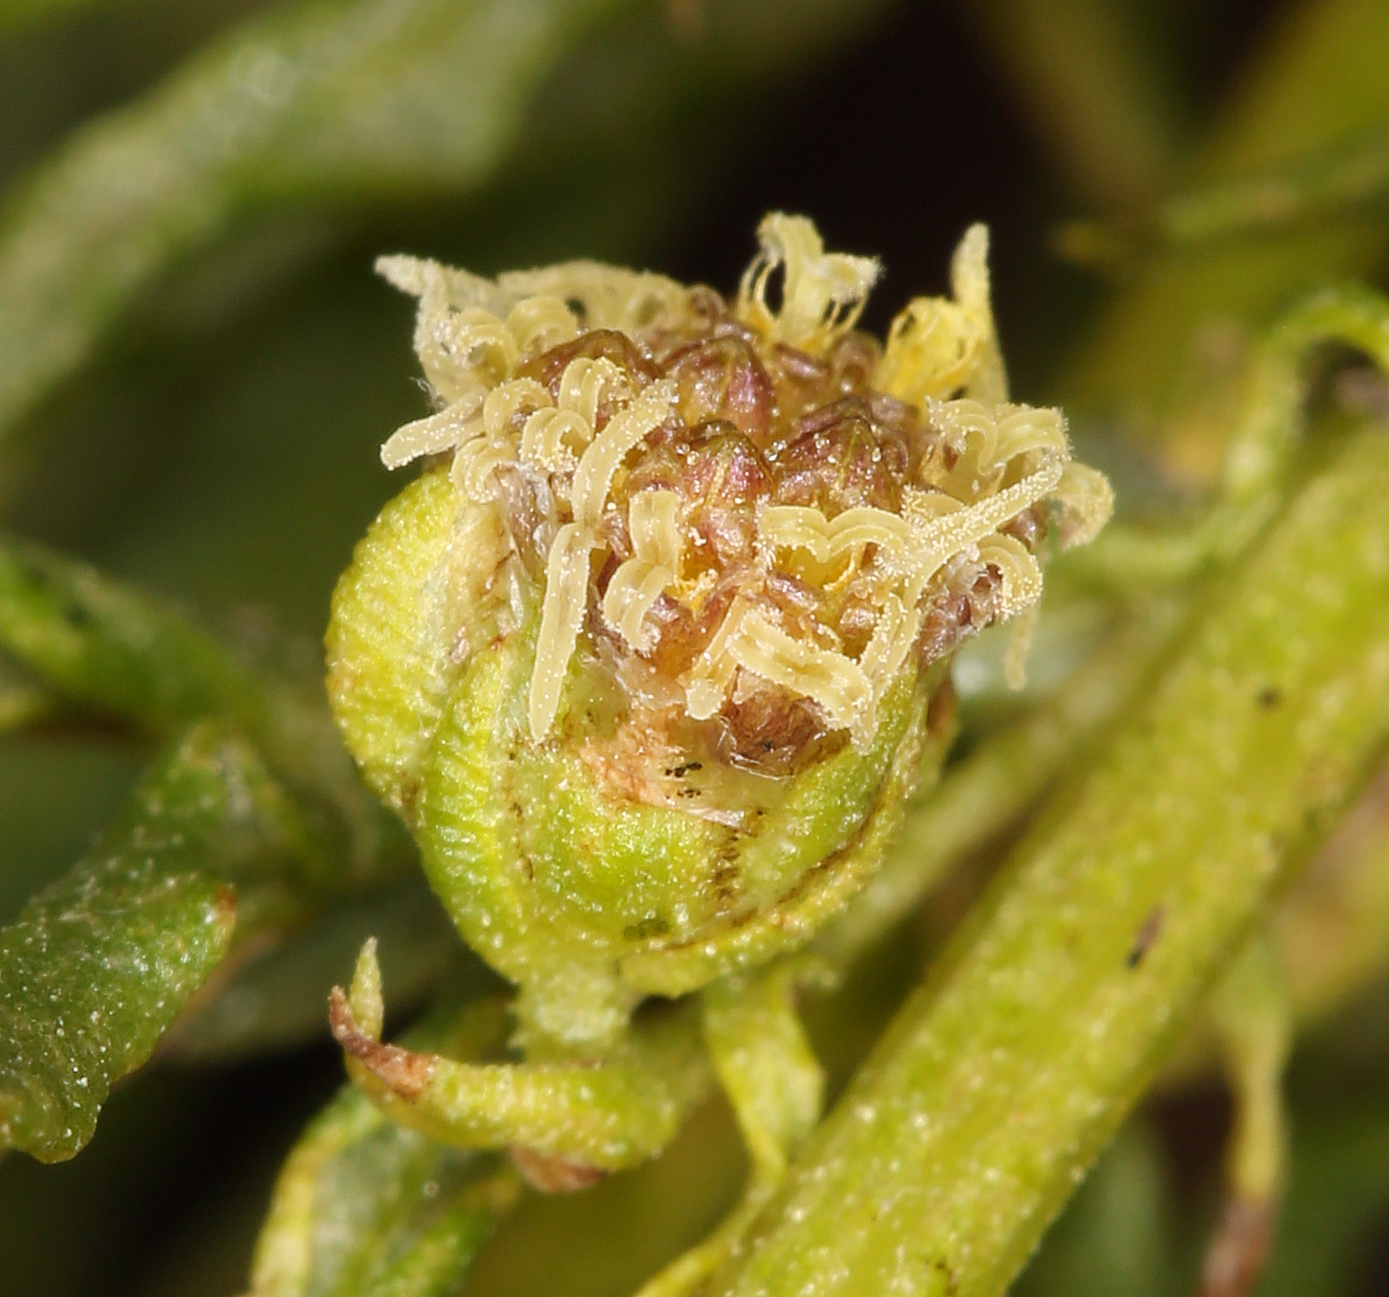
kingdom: Plantae
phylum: Tracheophyta
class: Magnoliopsida
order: Asterales
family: Asteraceae
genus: Artemisia
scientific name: Artemisia michauxiana
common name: Lemon sagewort
